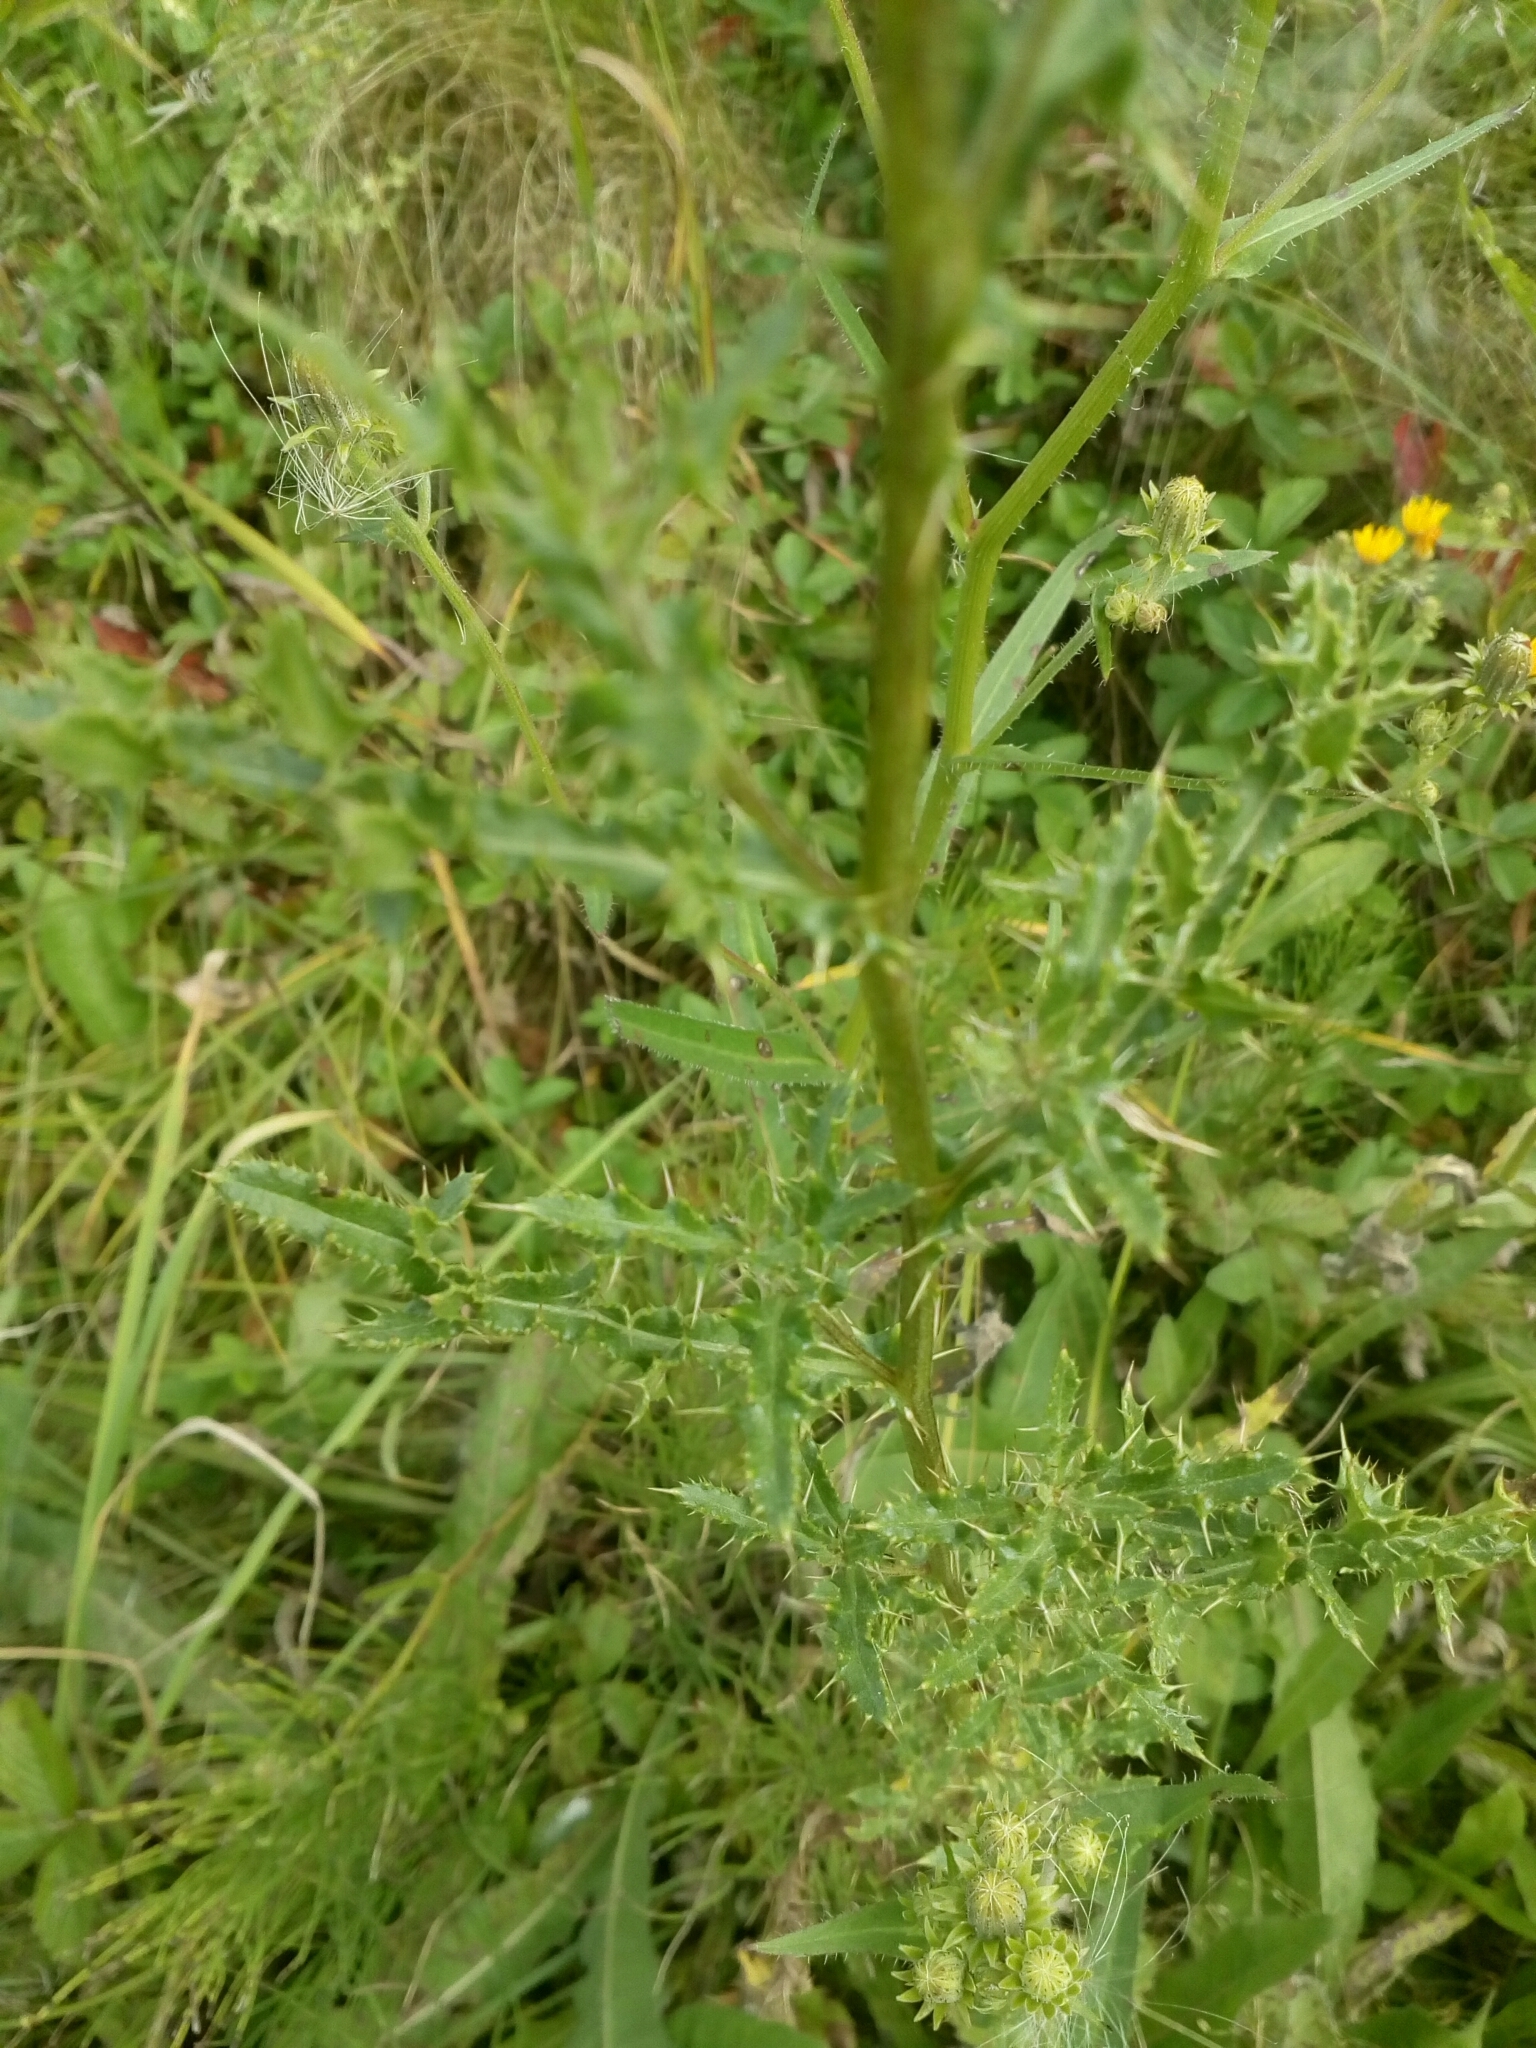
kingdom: Plantae
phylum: Tracheophyta
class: Magnoliopsida
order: Asterales
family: Asteraceae
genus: Cirsium
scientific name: Cirsium arvense
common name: Creeping thistle
